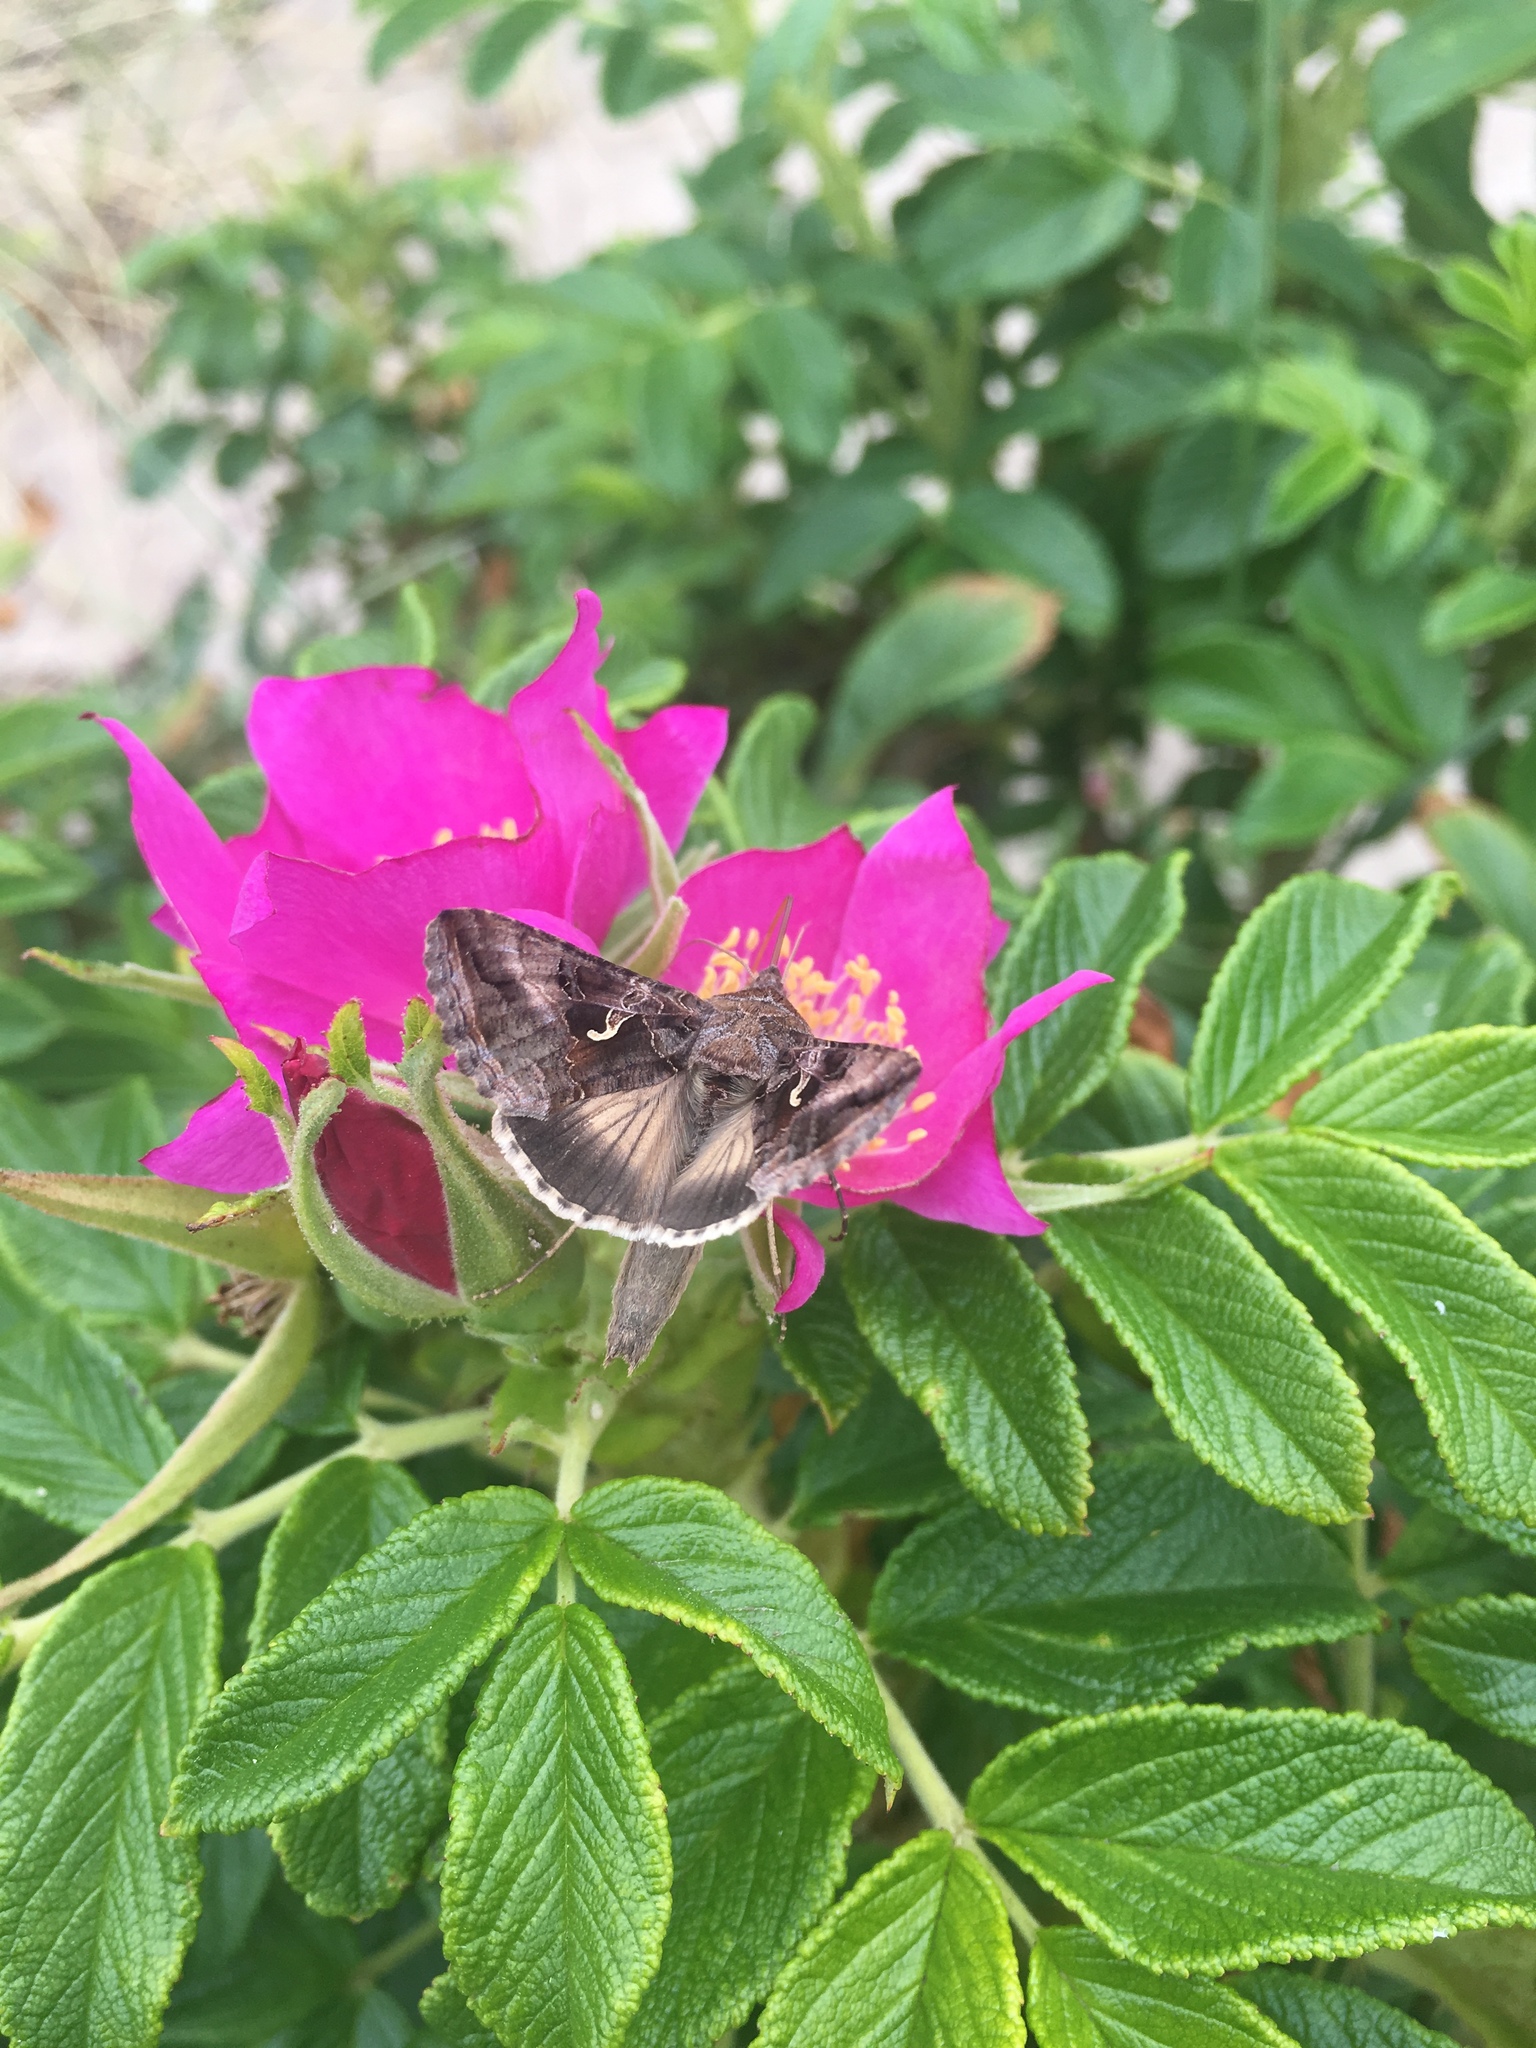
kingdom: Animalia
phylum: Arthropoda
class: Insecta
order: Lepidoptera
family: Noctuidae
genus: Autographa
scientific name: Autographa gamma
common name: Silver y
